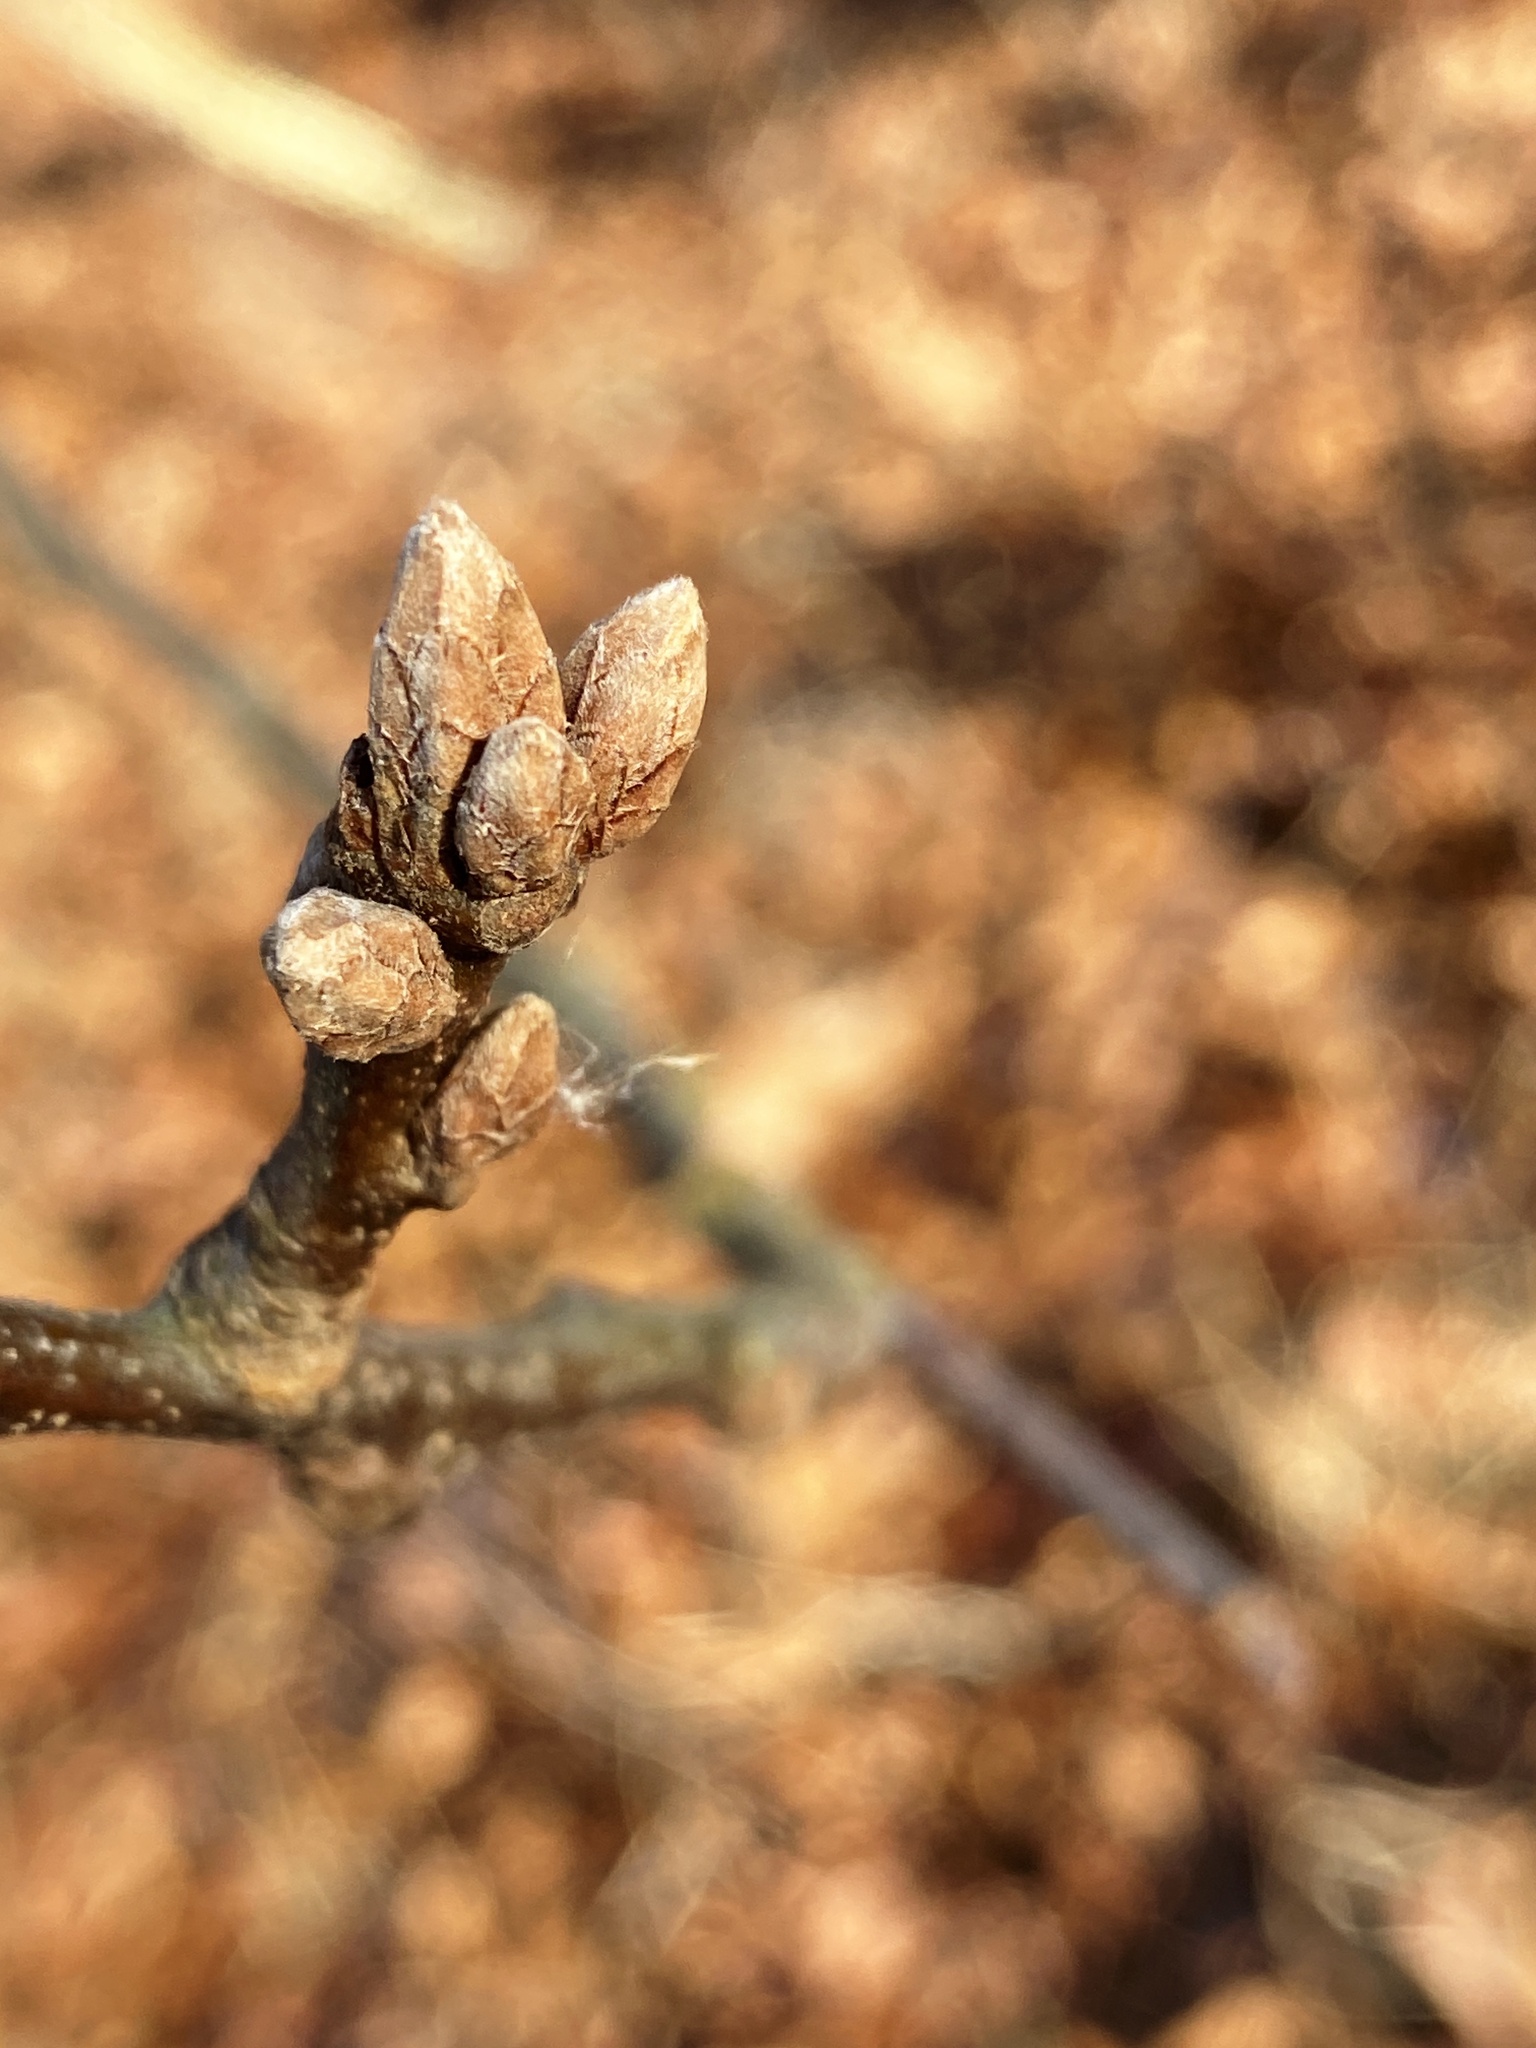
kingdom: Plantae
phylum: Tracheophyta
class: Magnoliopsida
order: Fagales
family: Fagaceae
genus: Quercus
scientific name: Quercus velutina
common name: Black oak
